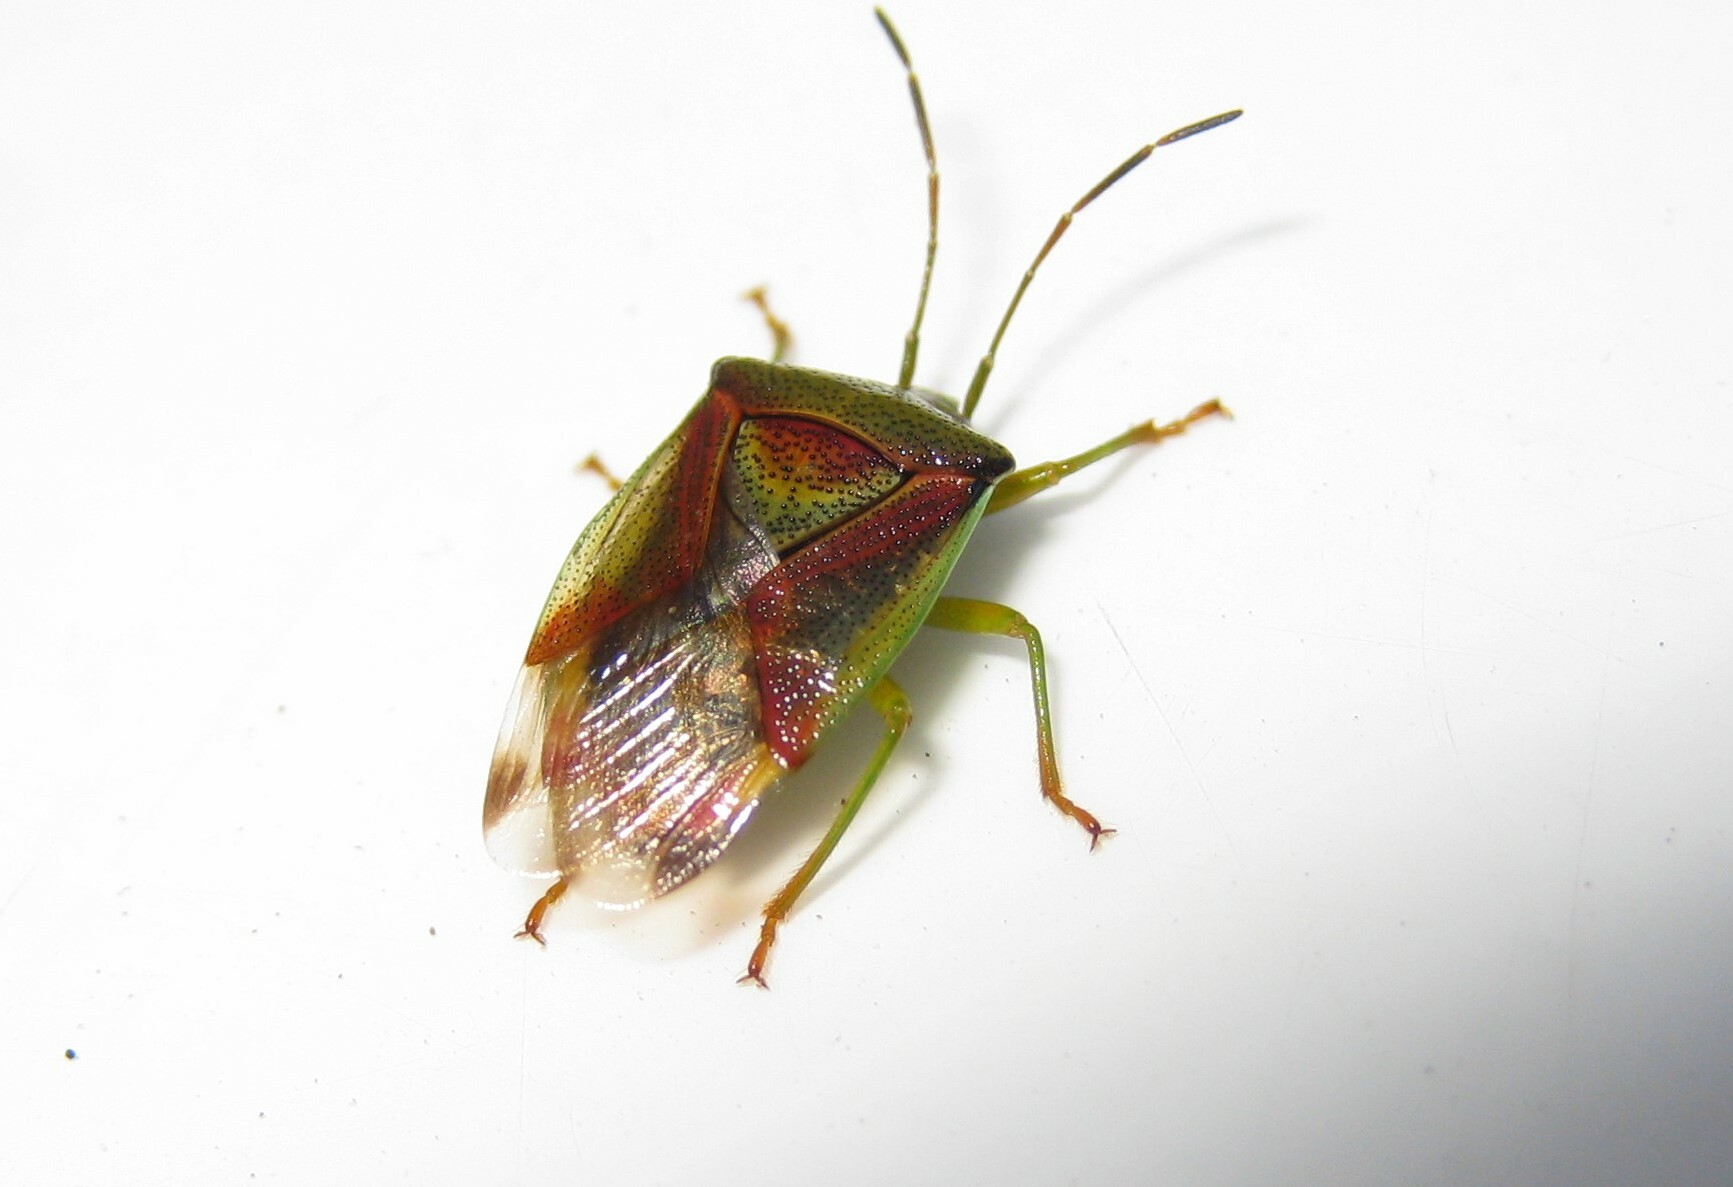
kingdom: Animalia
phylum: Arthropoda
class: Insecta
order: Hemiptera
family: Acanthosomatidae
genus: Elasmostethus
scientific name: Elasmostethus interstinctus
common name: Birch shieldbug
